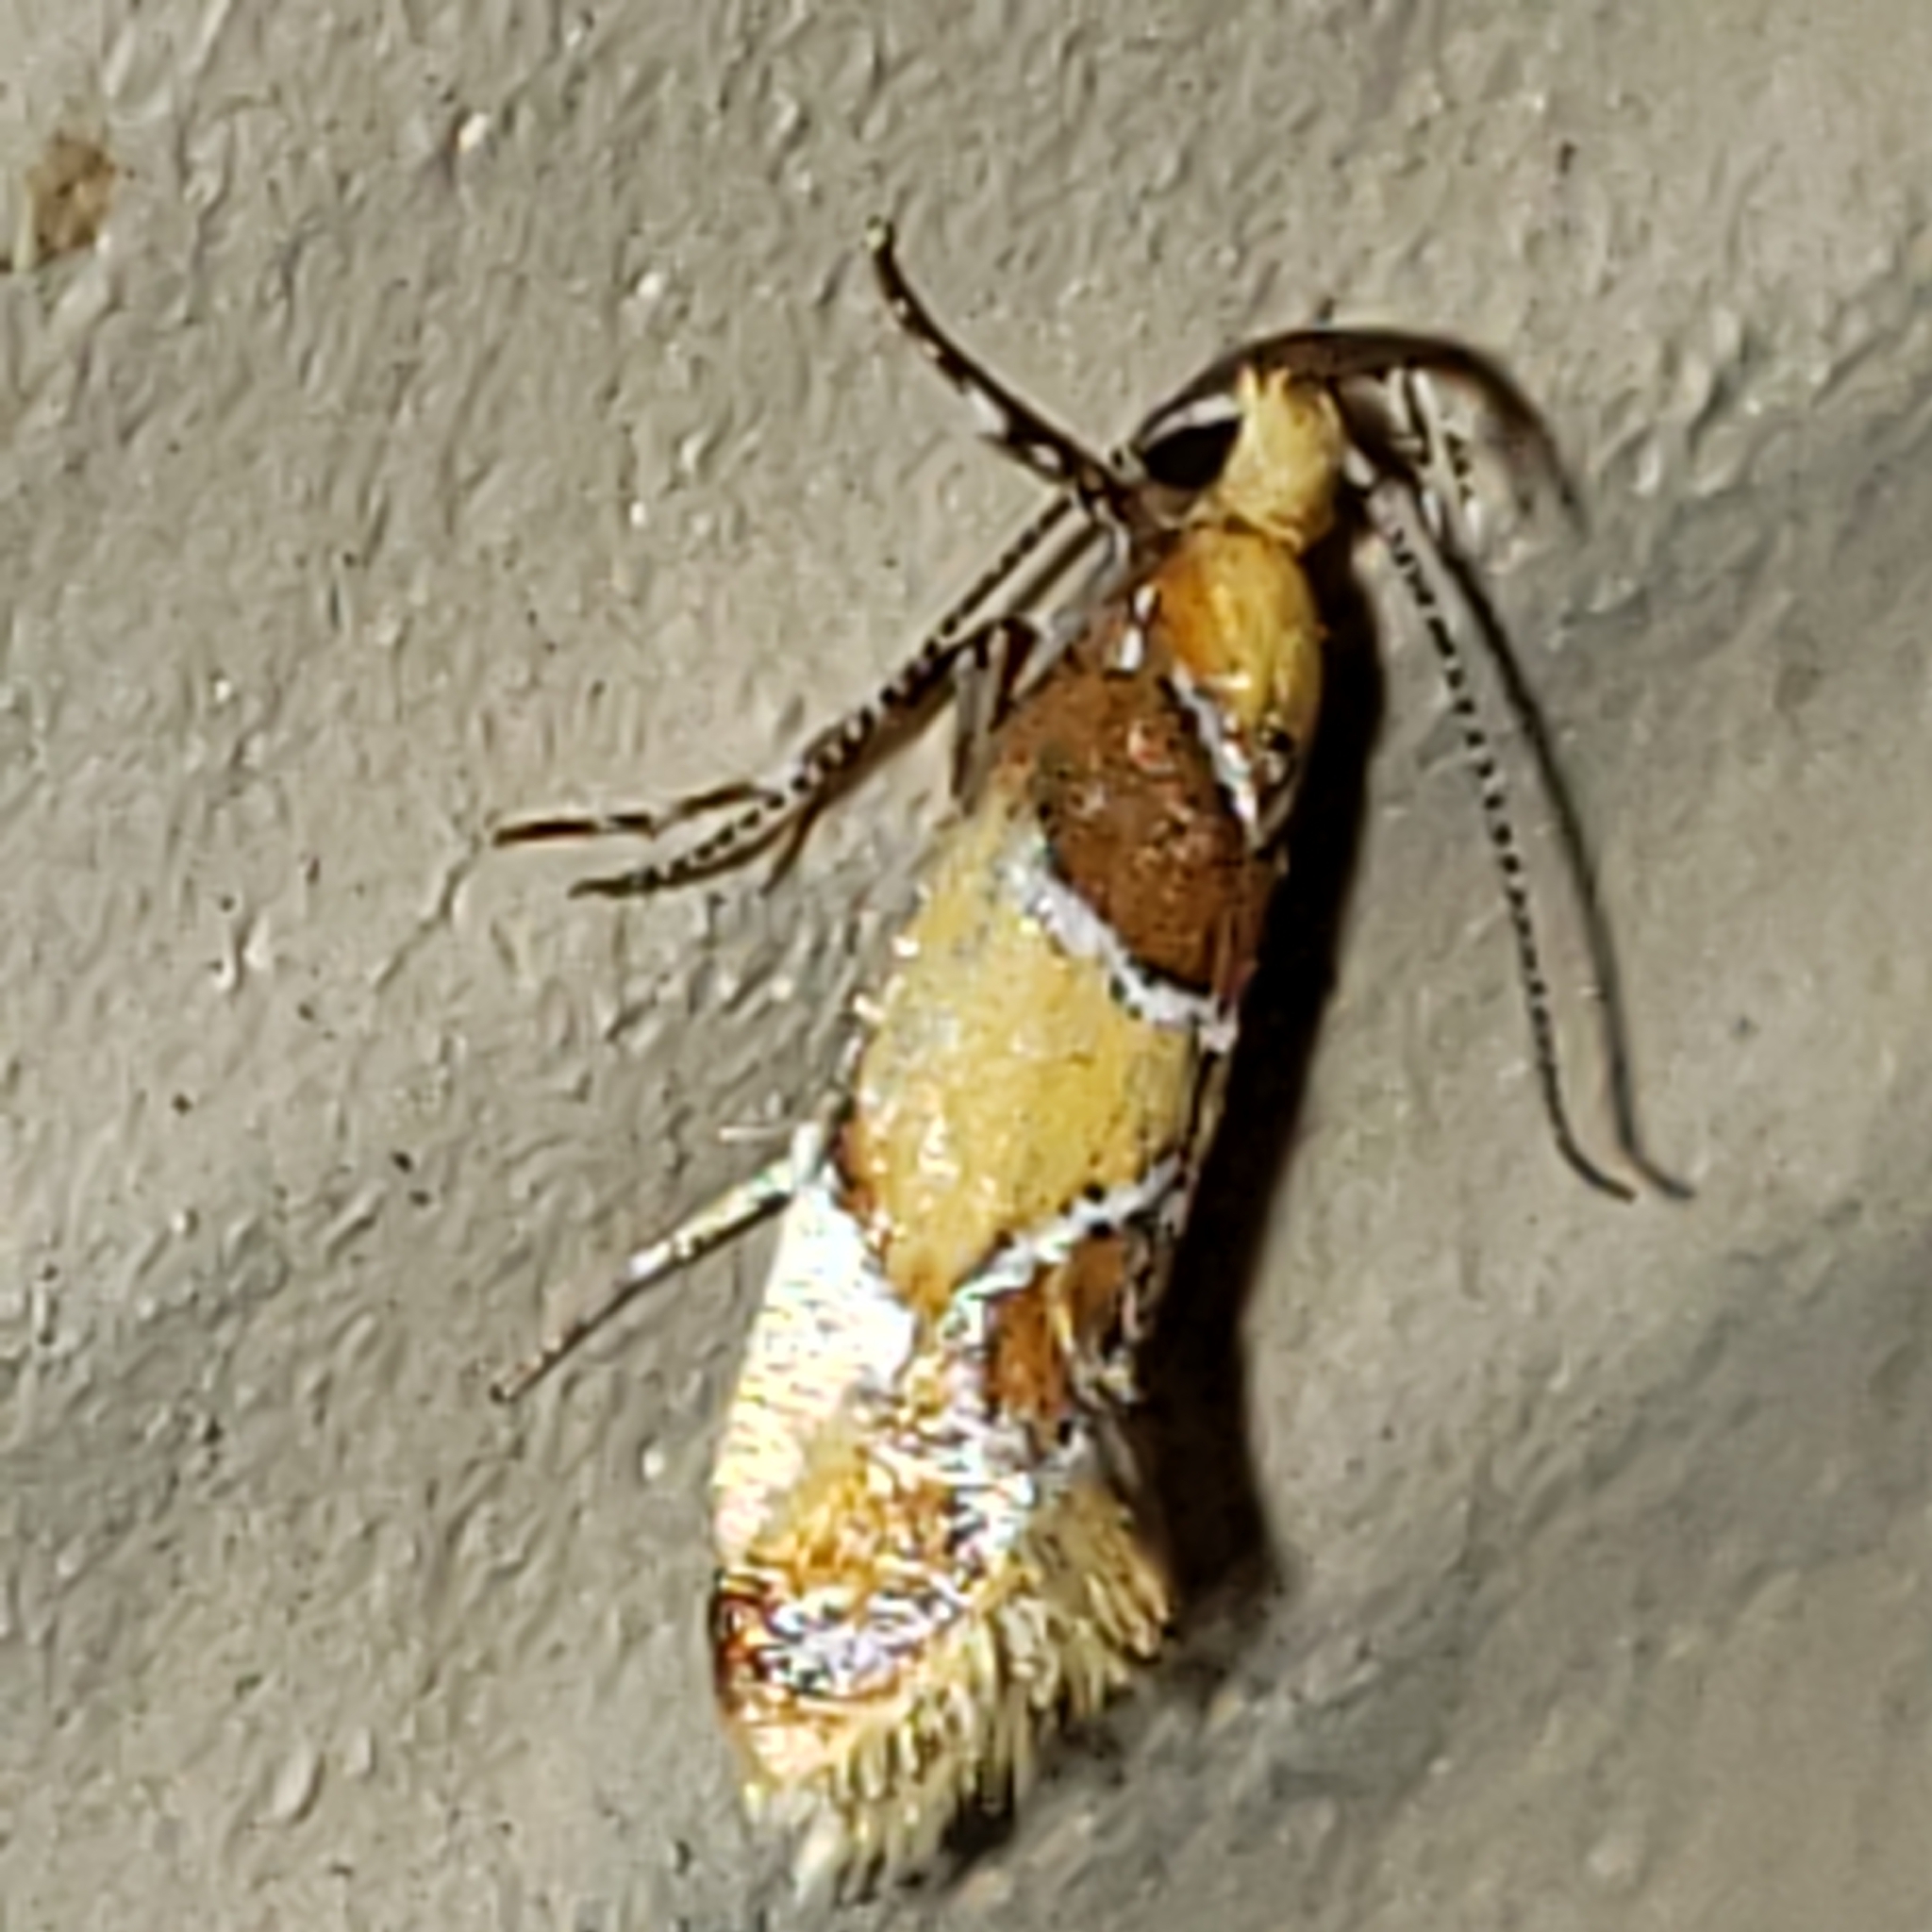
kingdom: Animalia
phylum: Arthropoda
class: Insecta
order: Lepidoptera
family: Oecophoridae
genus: Callima
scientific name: Callima argenticinctella
